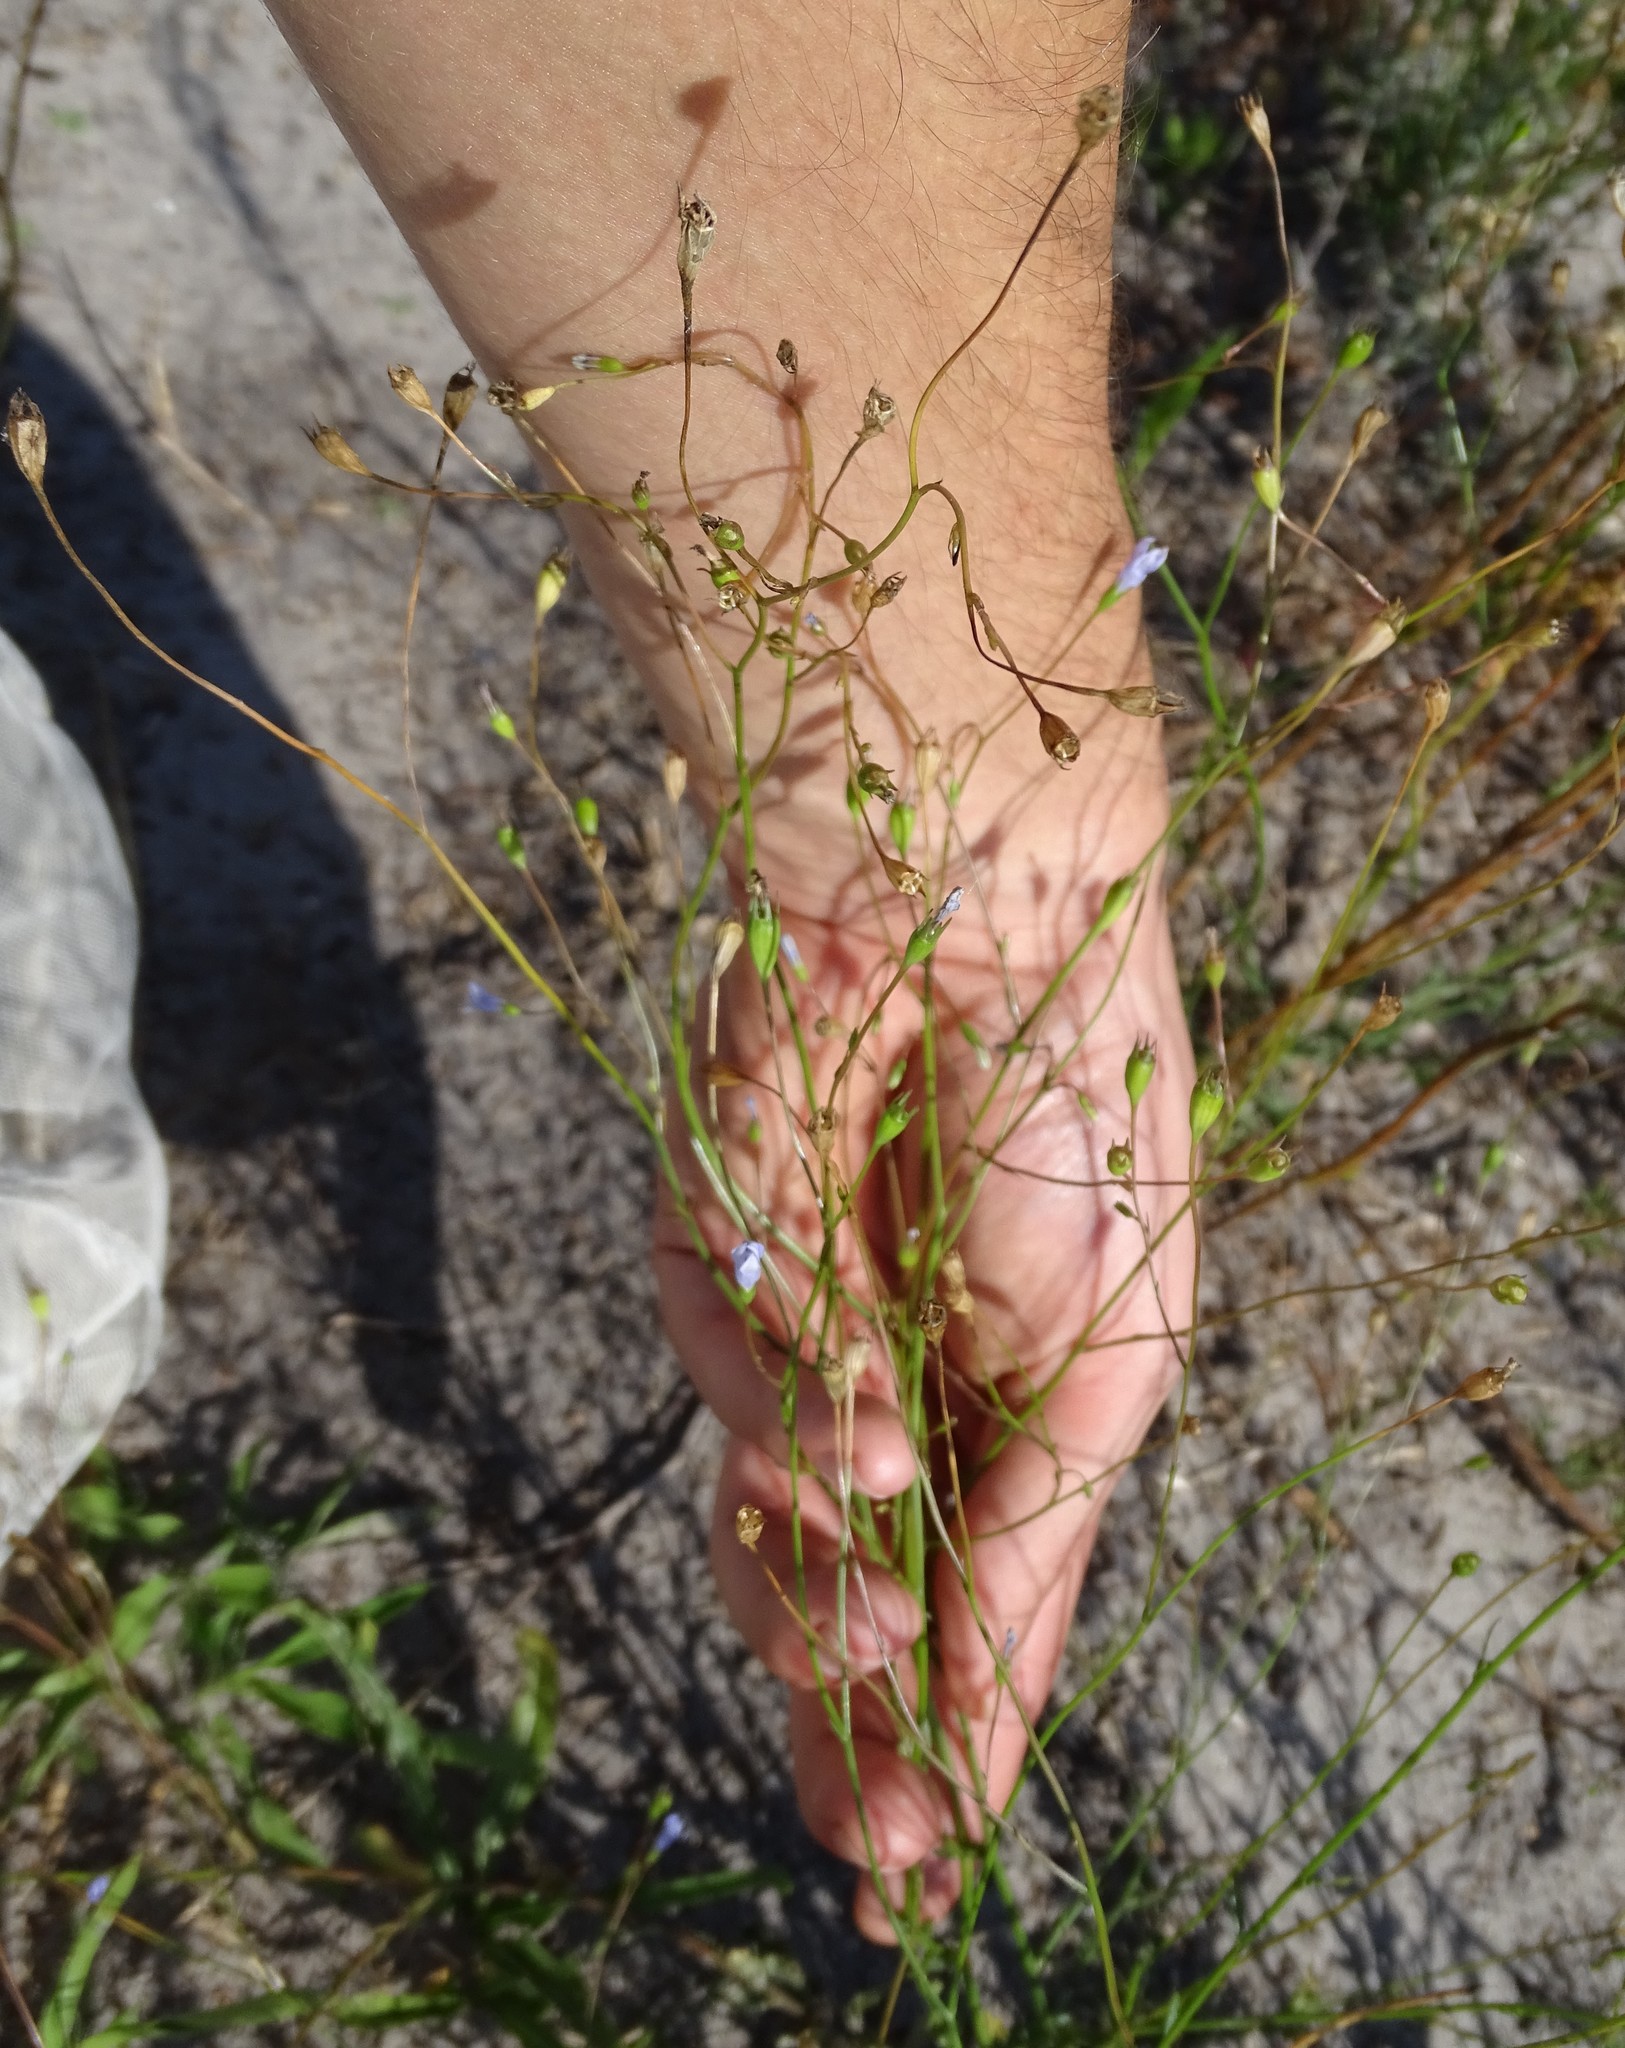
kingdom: Plantae
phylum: Tracheophyta
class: Magnoliopsida
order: Asterales
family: Campanulaceae
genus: Wahlenbergia
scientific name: Wahlenbergia marginata
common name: Southern rockbell
